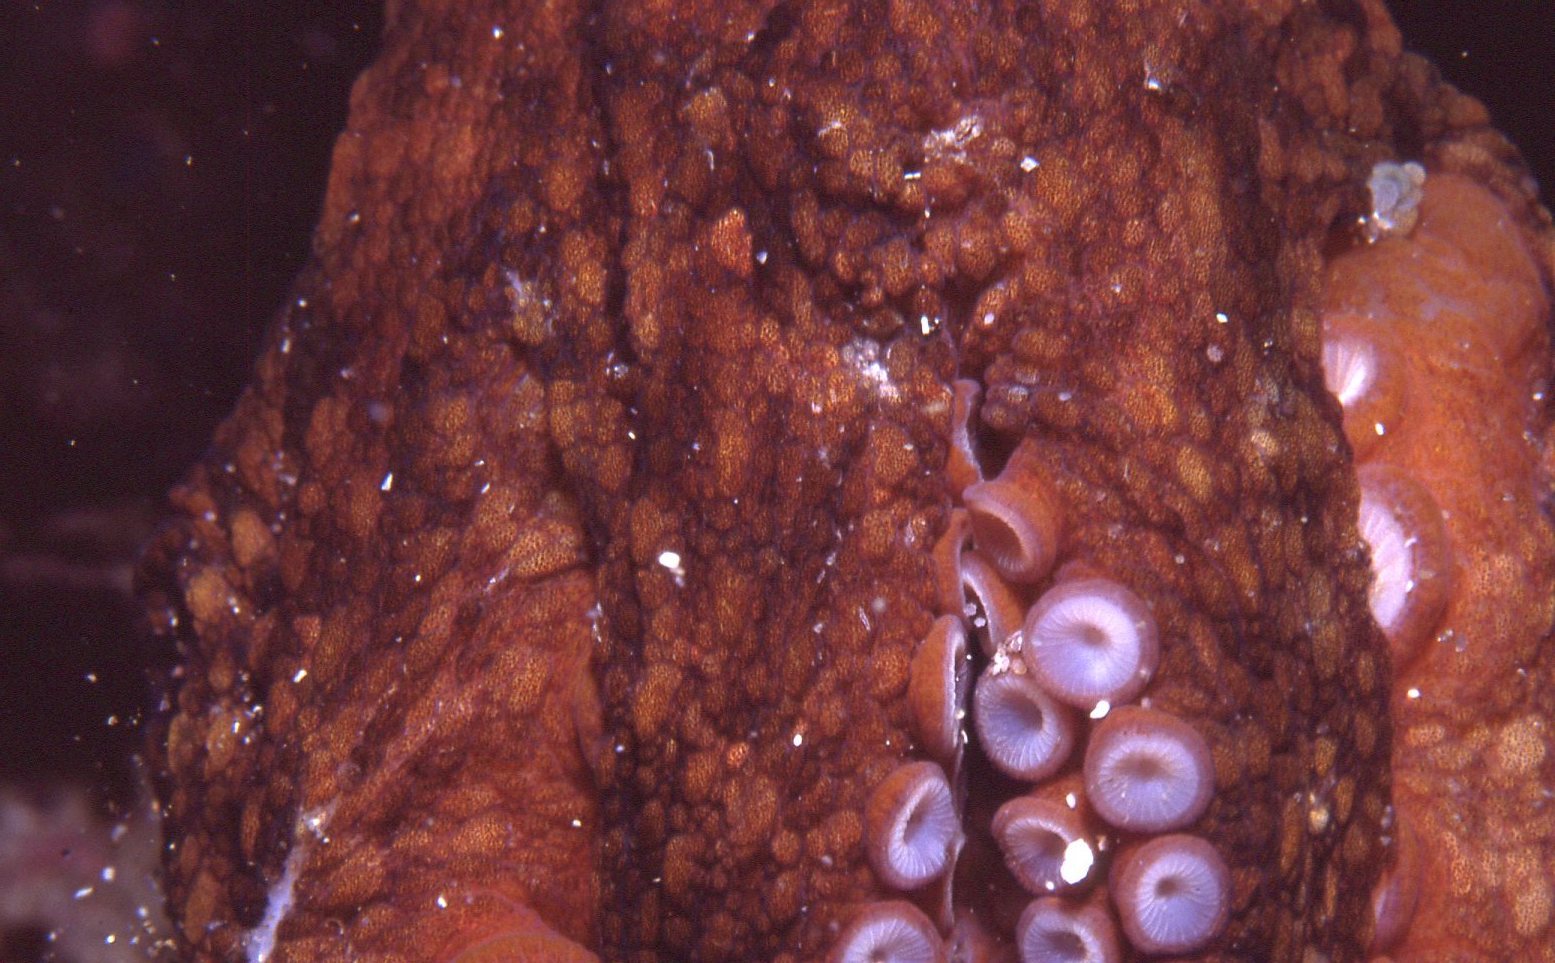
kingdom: Animalia
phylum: Mollusca
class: Cephalopoda
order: Octopoda
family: Octopodidae
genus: Octopus
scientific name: Octopus tetricus
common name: Sydney octopus
